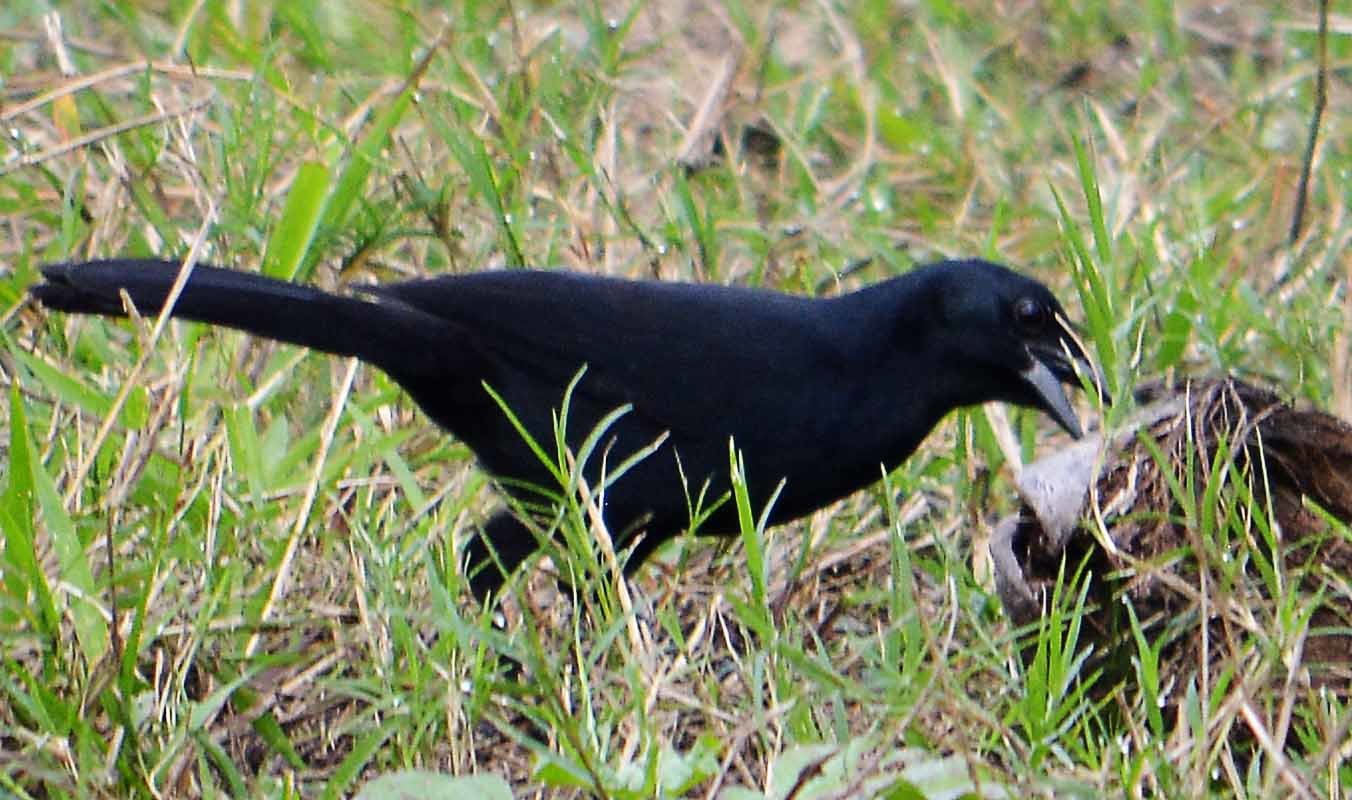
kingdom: Animalia
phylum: Chordata
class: Aves
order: Passeriformes
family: Icteridae
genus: Dives
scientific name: Dives dives
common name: Melodious blackbird
